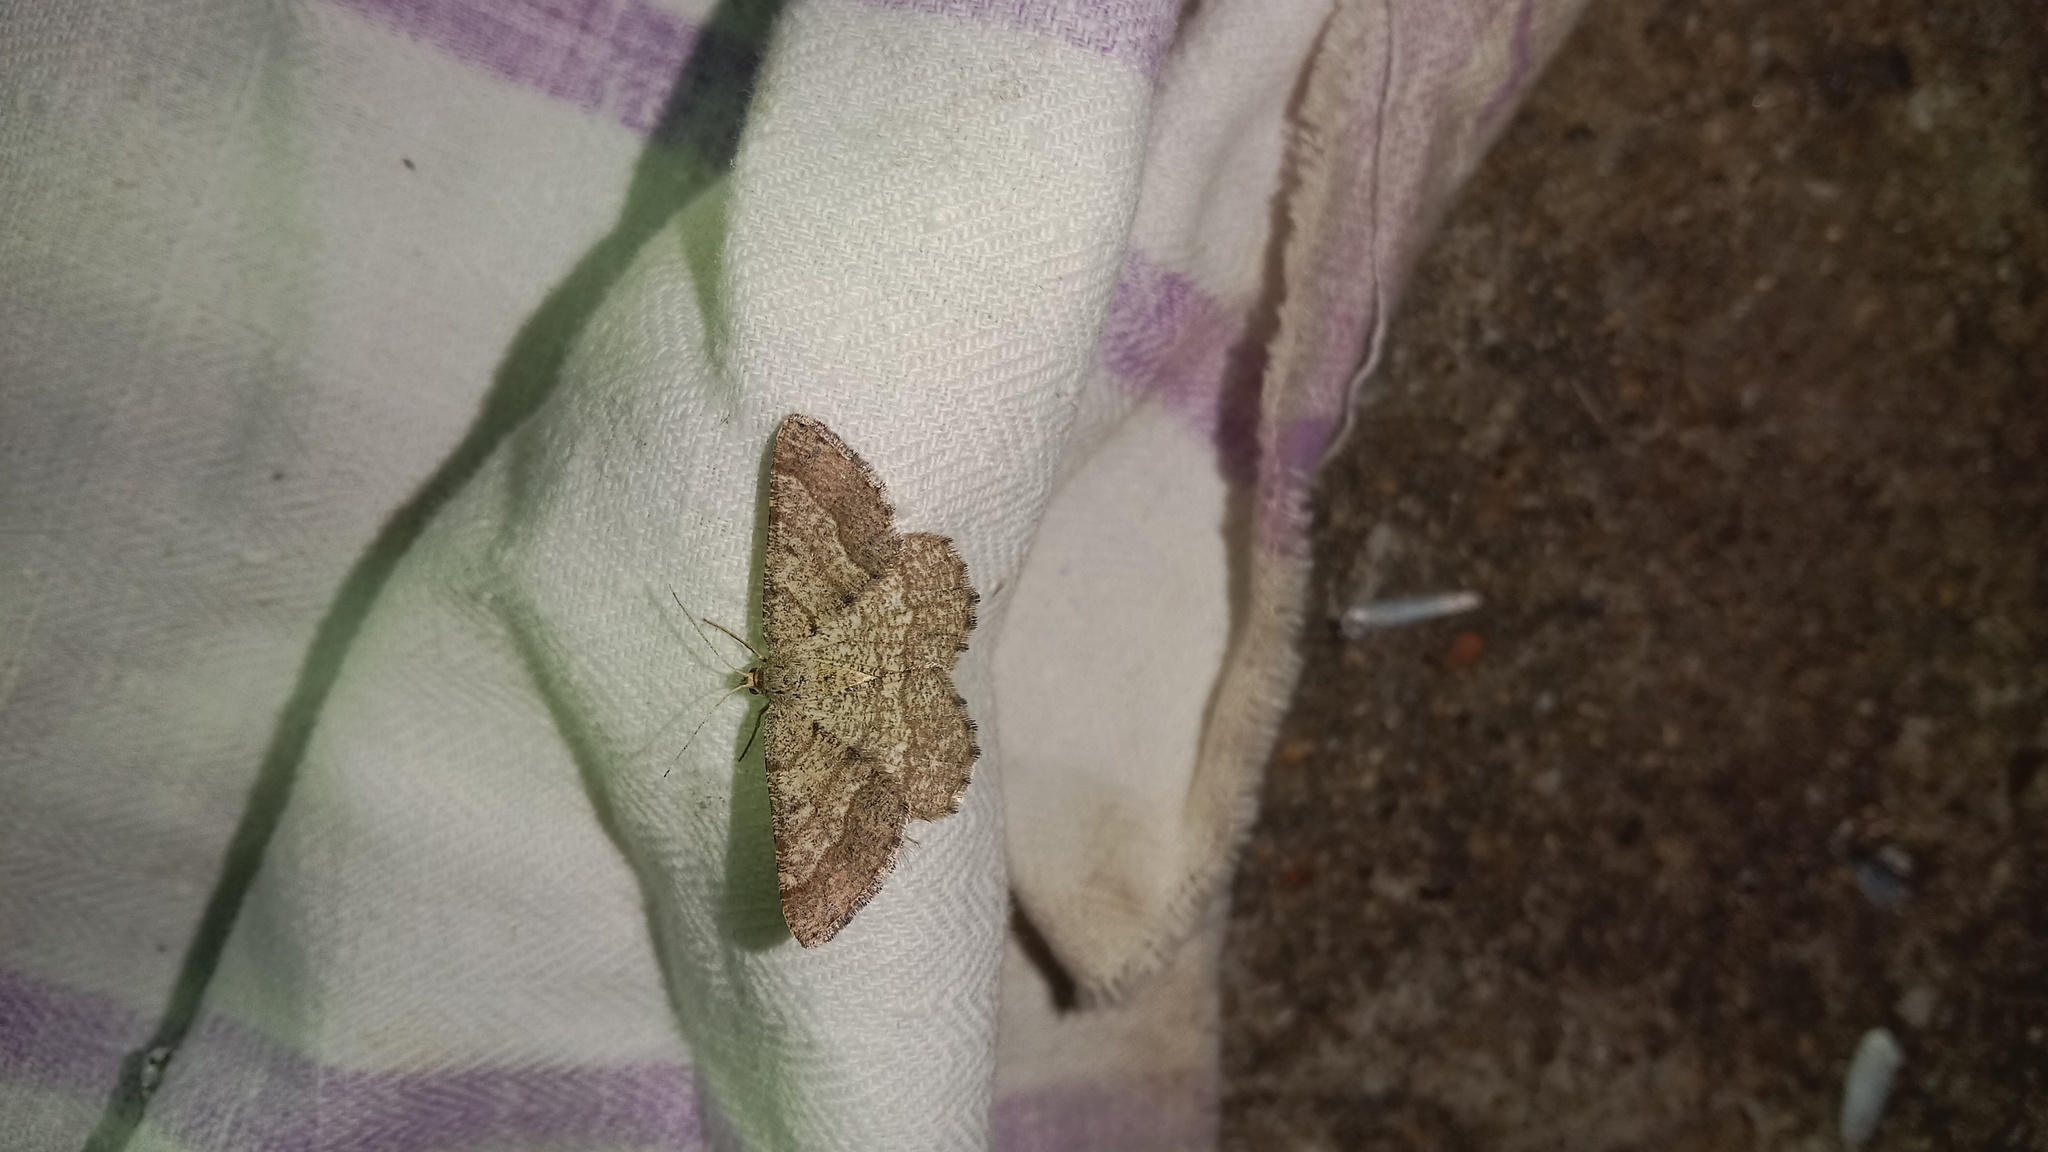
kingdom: Animalia
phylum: Arthropoda
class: Insecta
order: Lepidoptera
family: Geometridae
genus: Tephrina
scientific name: Tephrina murinaria
